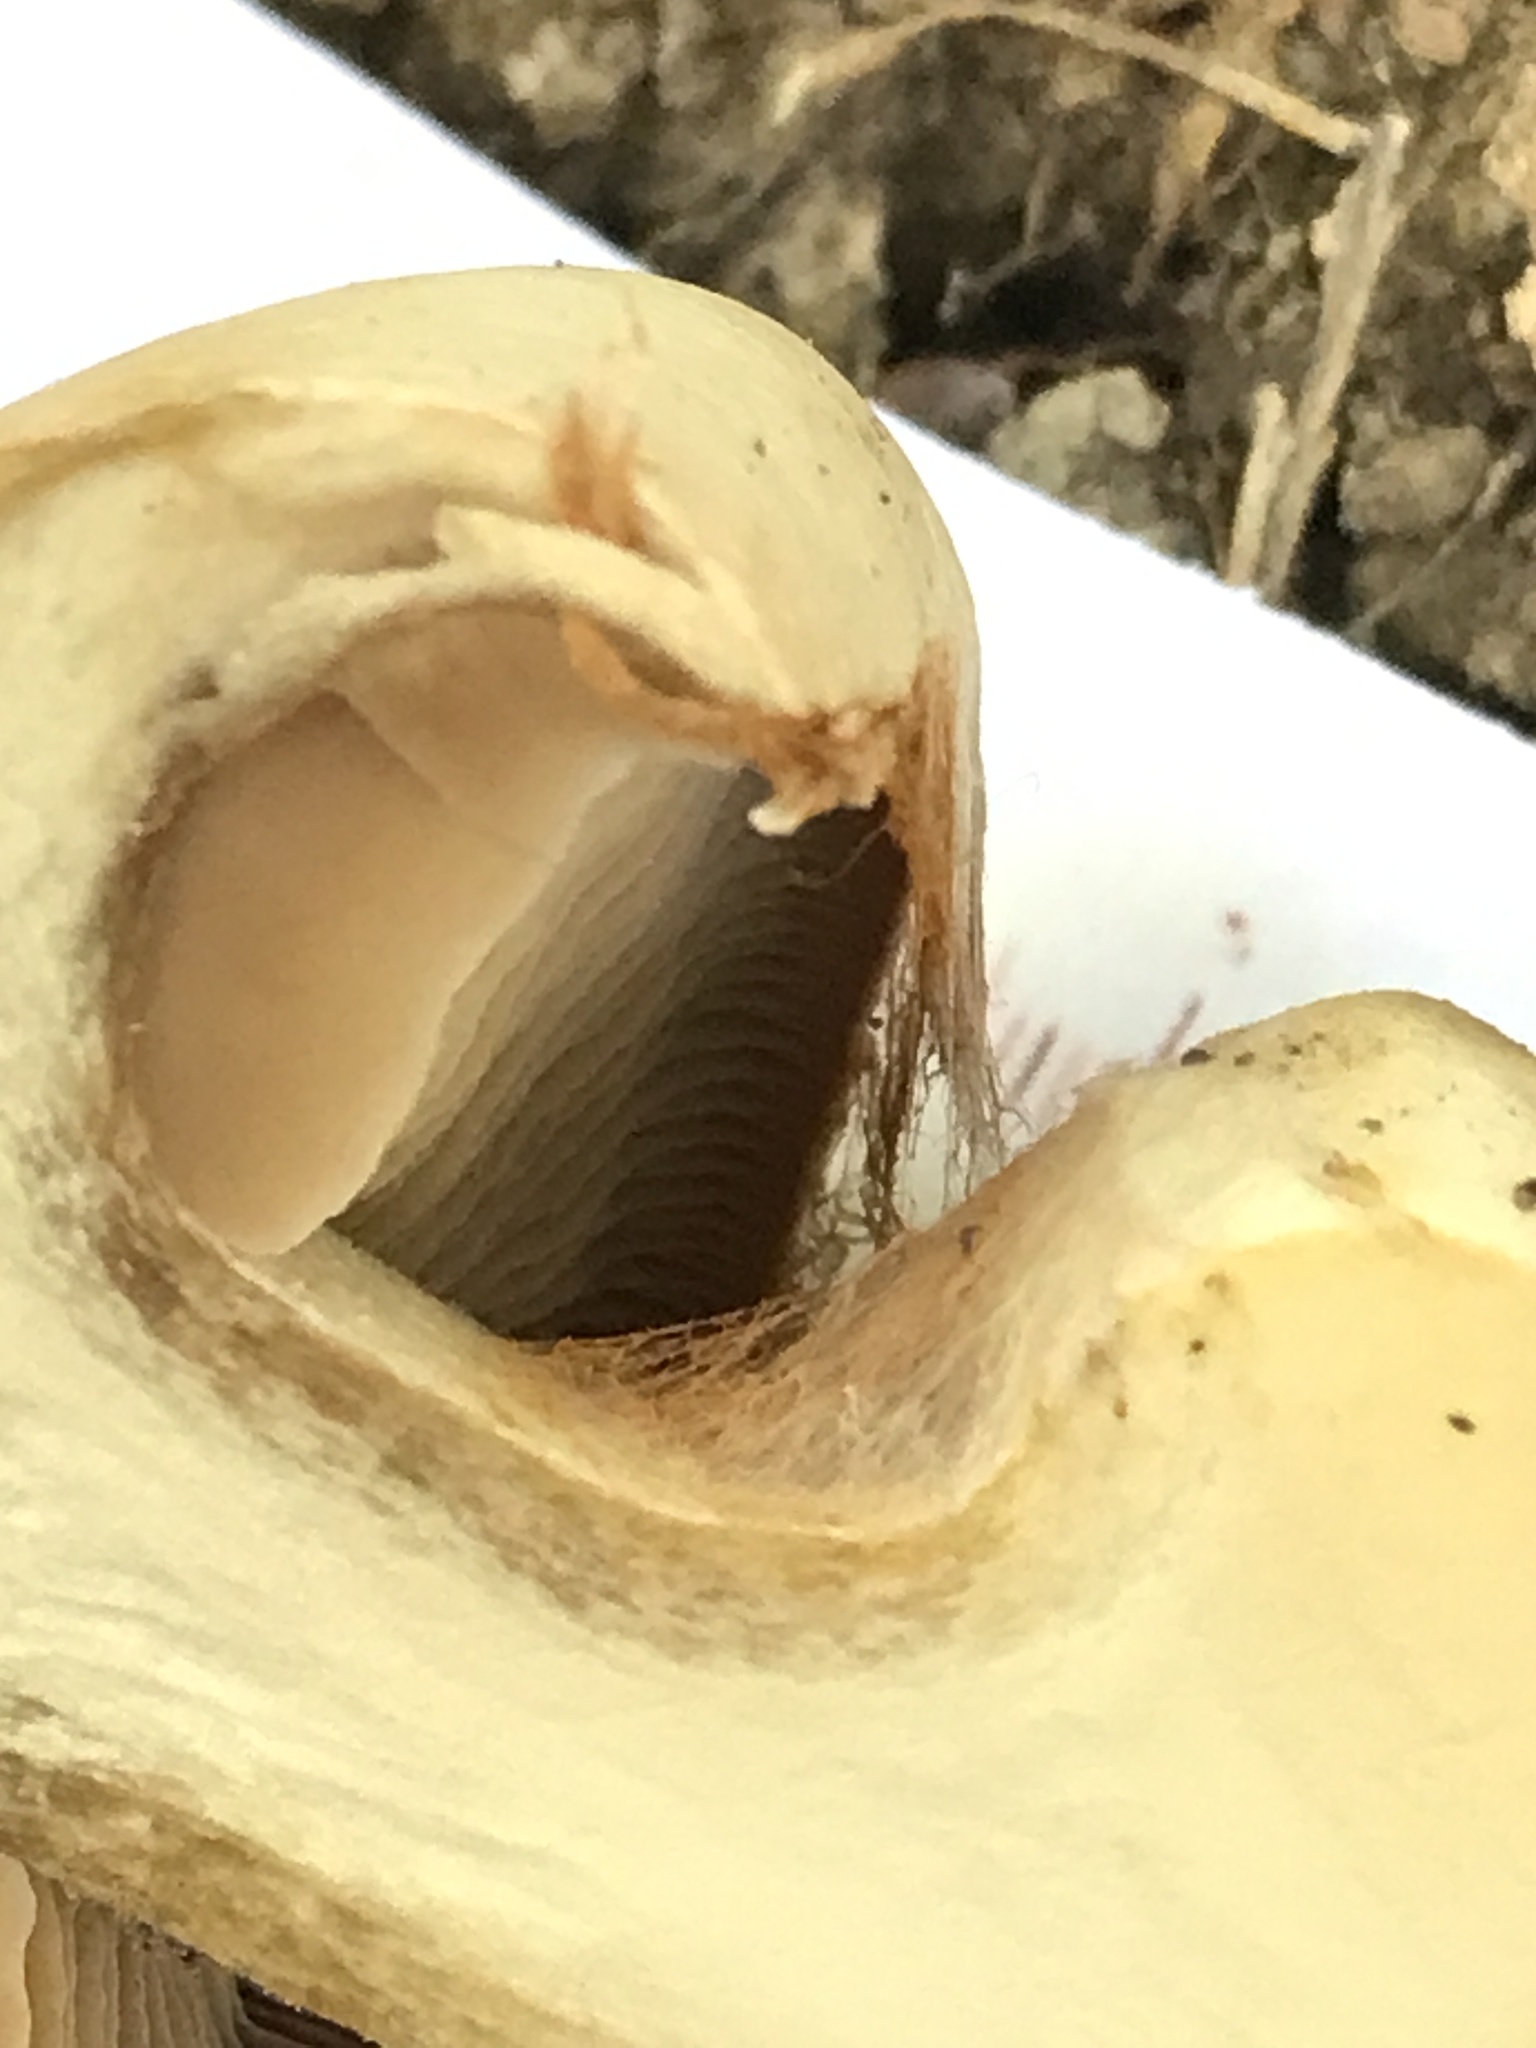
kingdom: Fungi
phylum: Basidiomycota
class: Agaricomycetes
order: Agaricales
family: Cortinariaceae
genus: Cortinarius
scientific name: Cortinarius subrimosus
